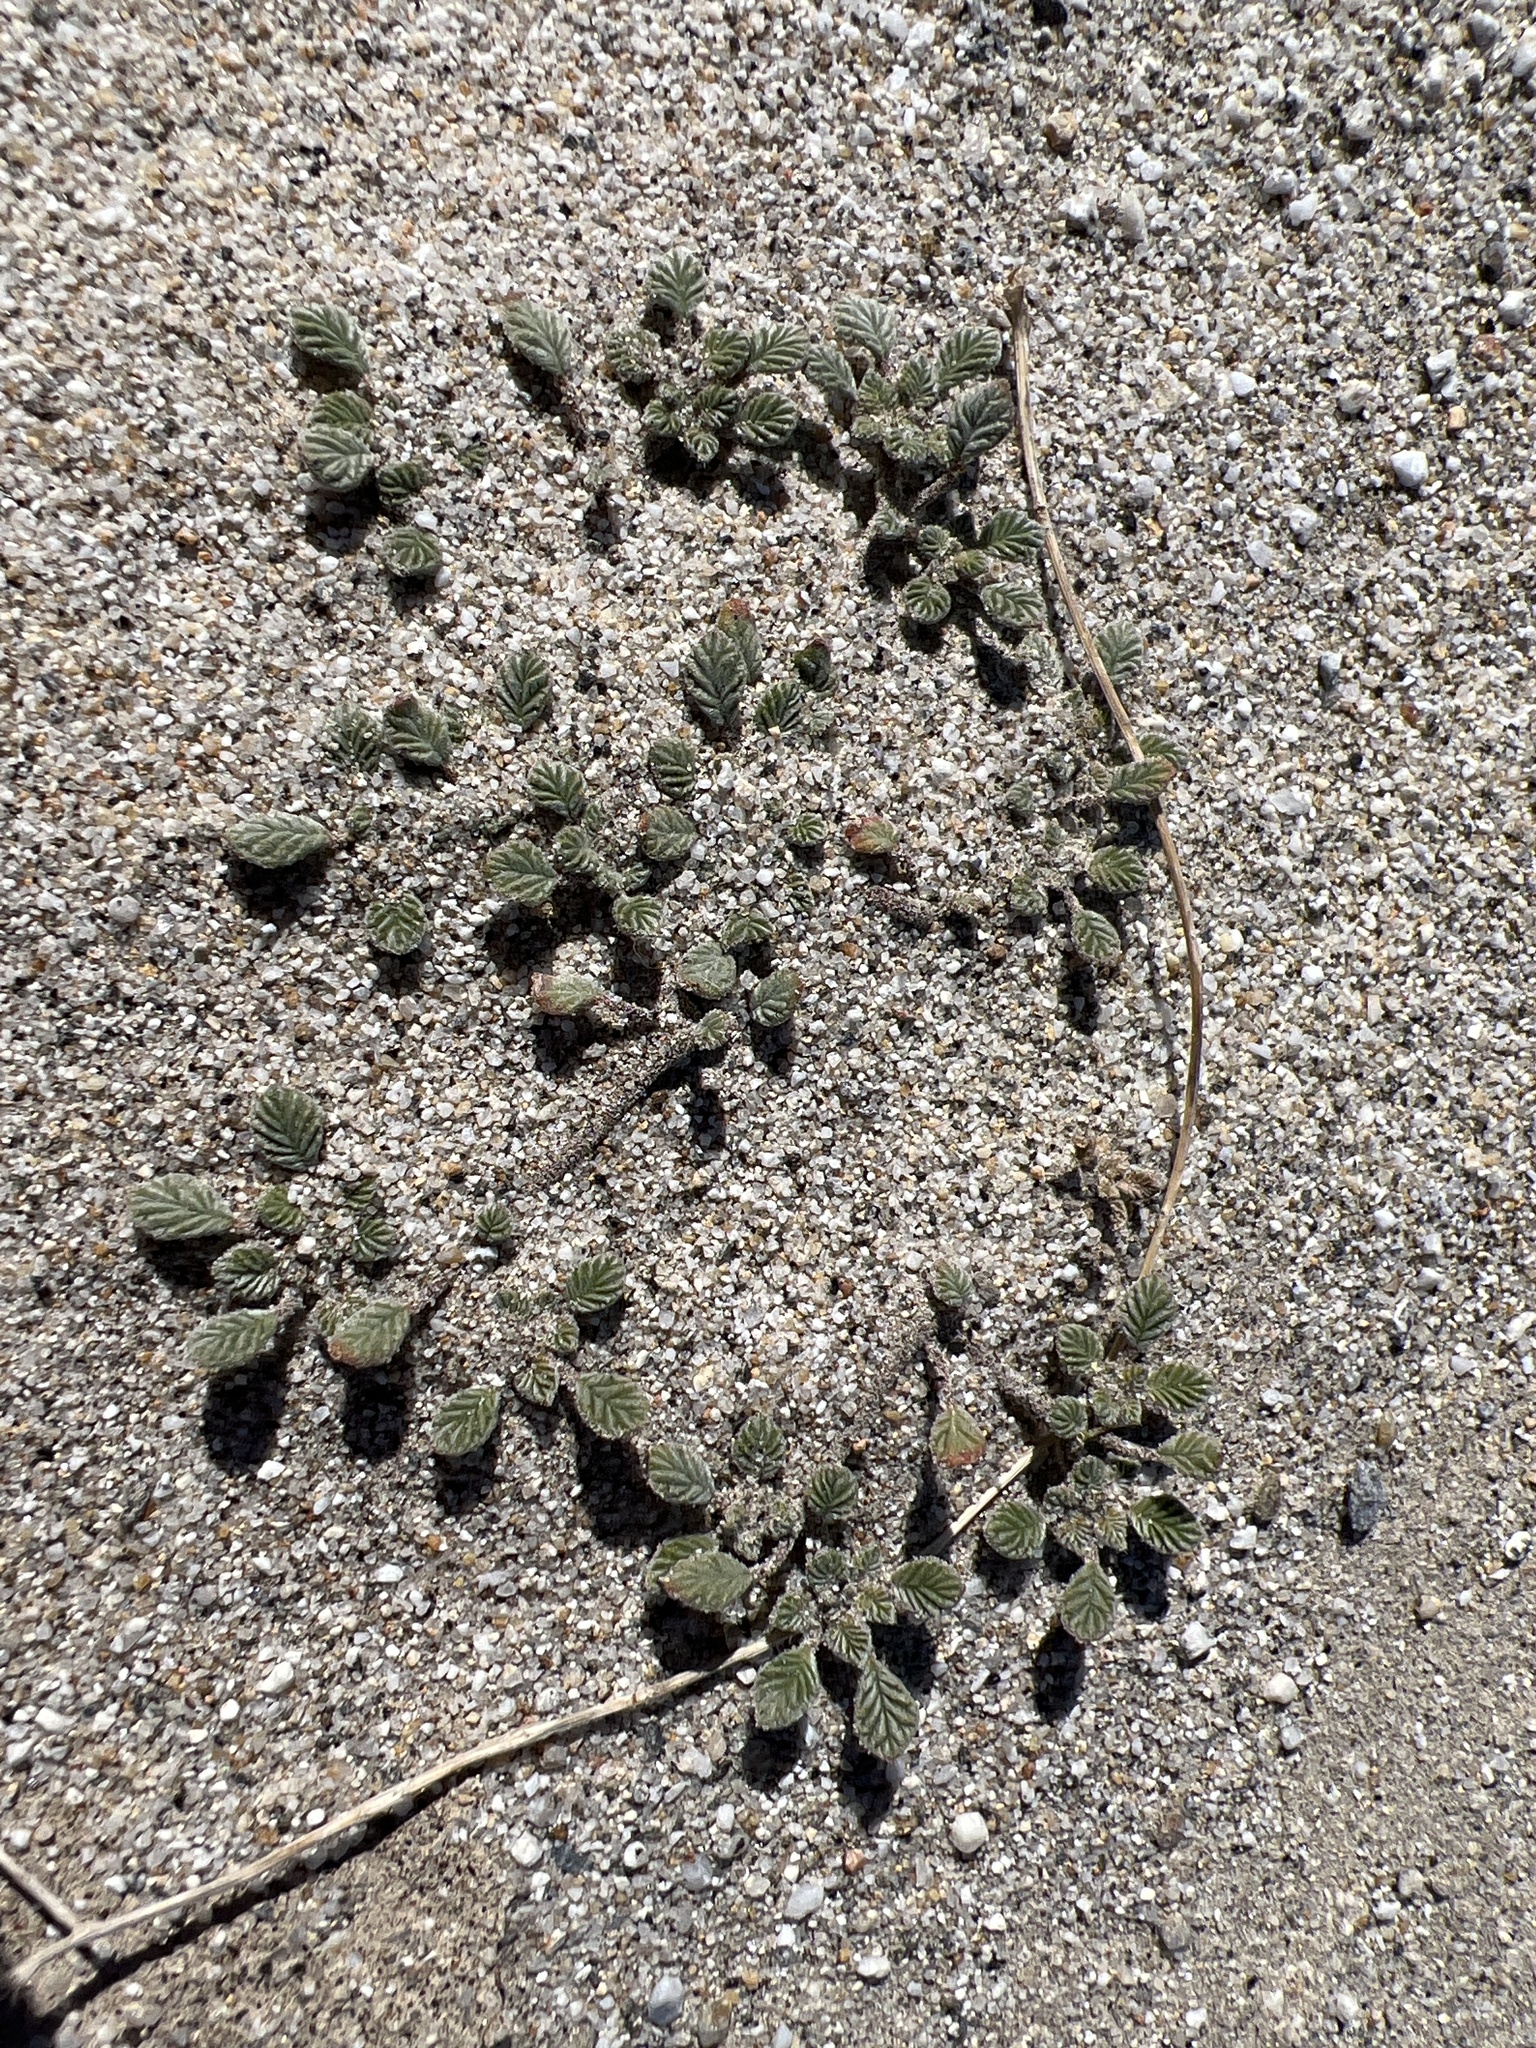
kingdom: Plantae
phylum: Tracheophyta
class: Magnoliopsida
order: Boraginales
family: Ehretiaceae
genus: Tiquilia
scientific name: Tiquilia plicata
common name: Fan-leaf tiquilia
